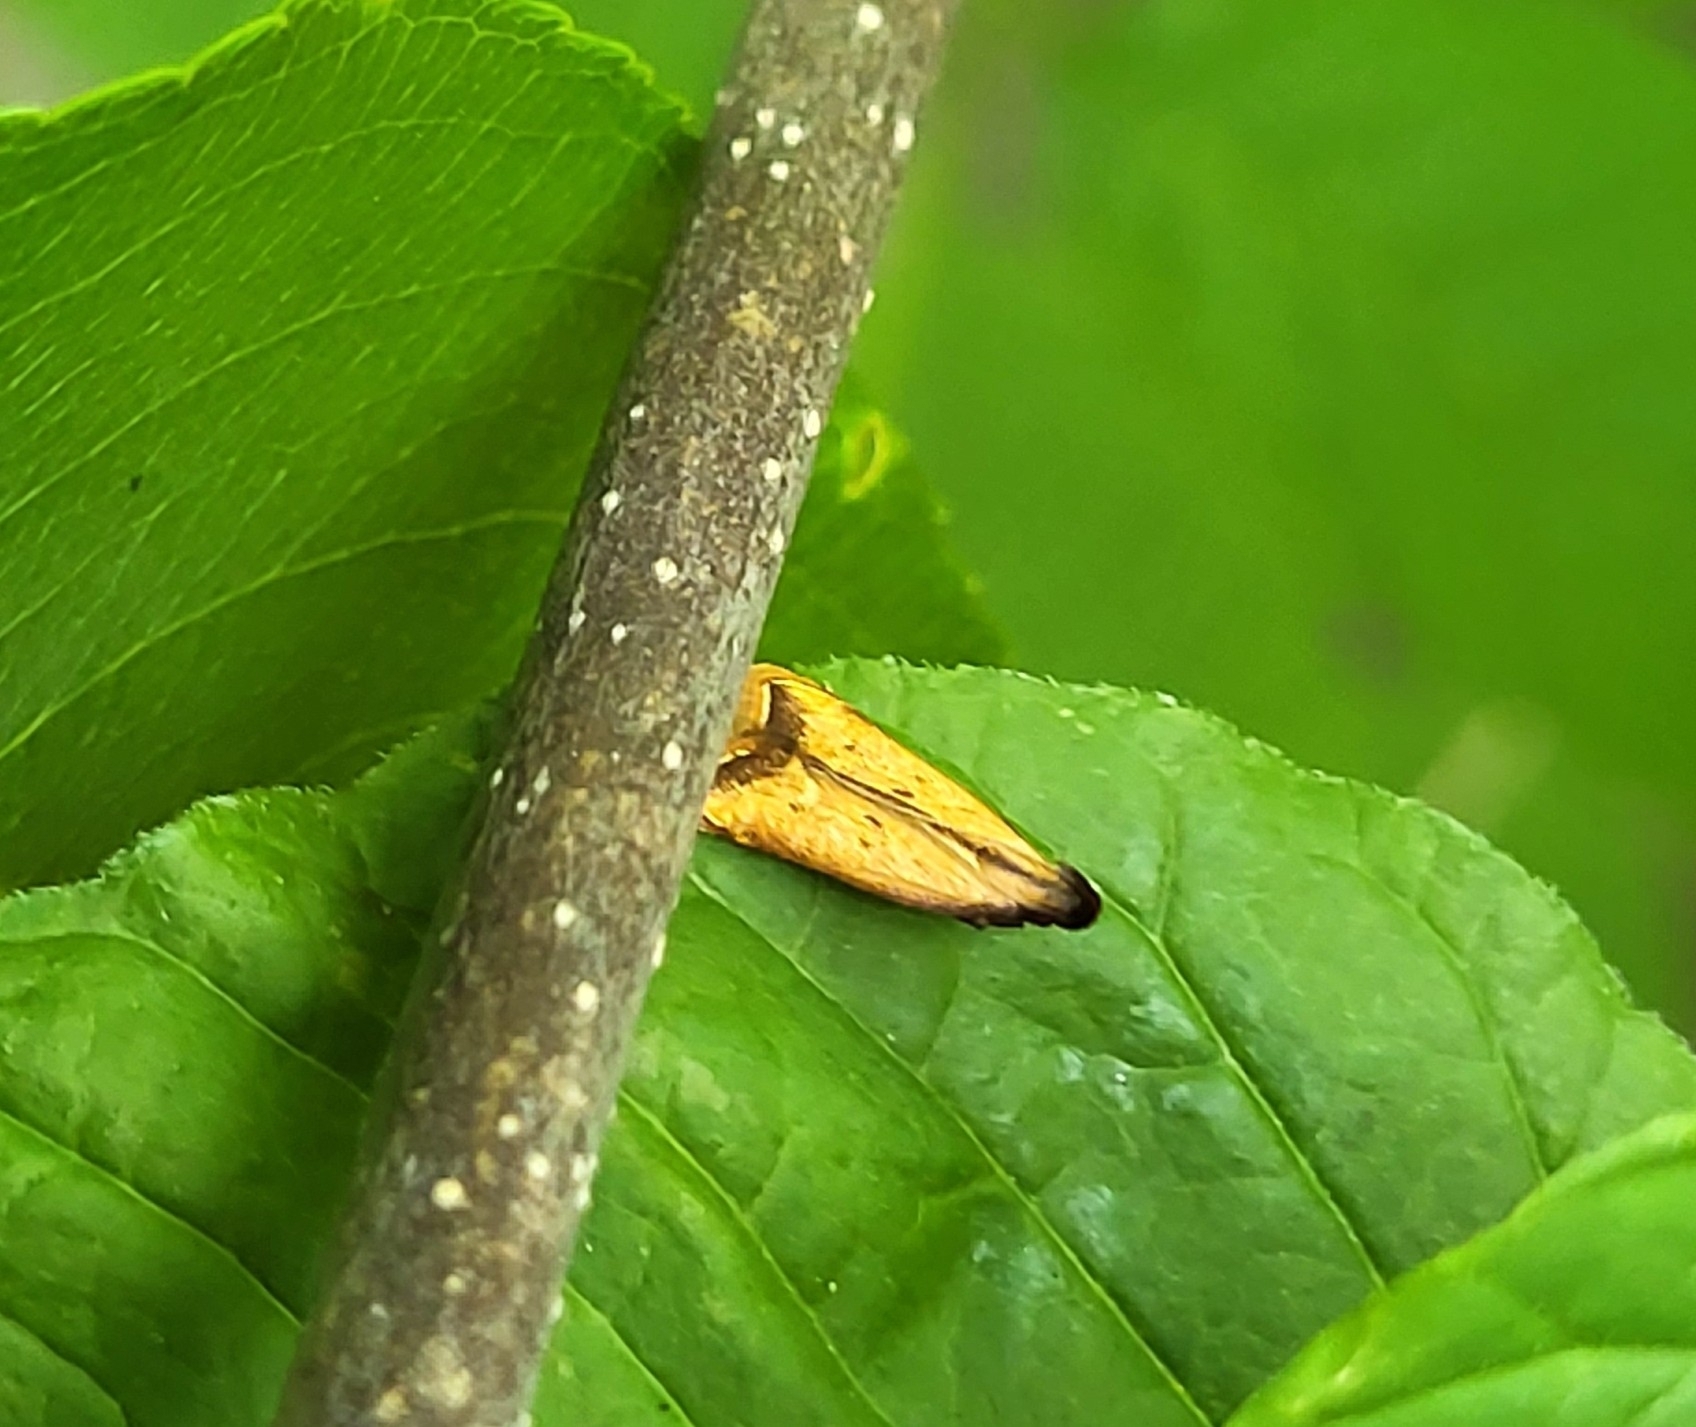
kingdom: Animalia
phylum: Arthropoda
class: Insecta
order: Lepidoptera
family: Gelechiidae
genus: Dichomeris
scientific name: Dichomeris heriguronis
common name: Black-edged dichomeris moth
